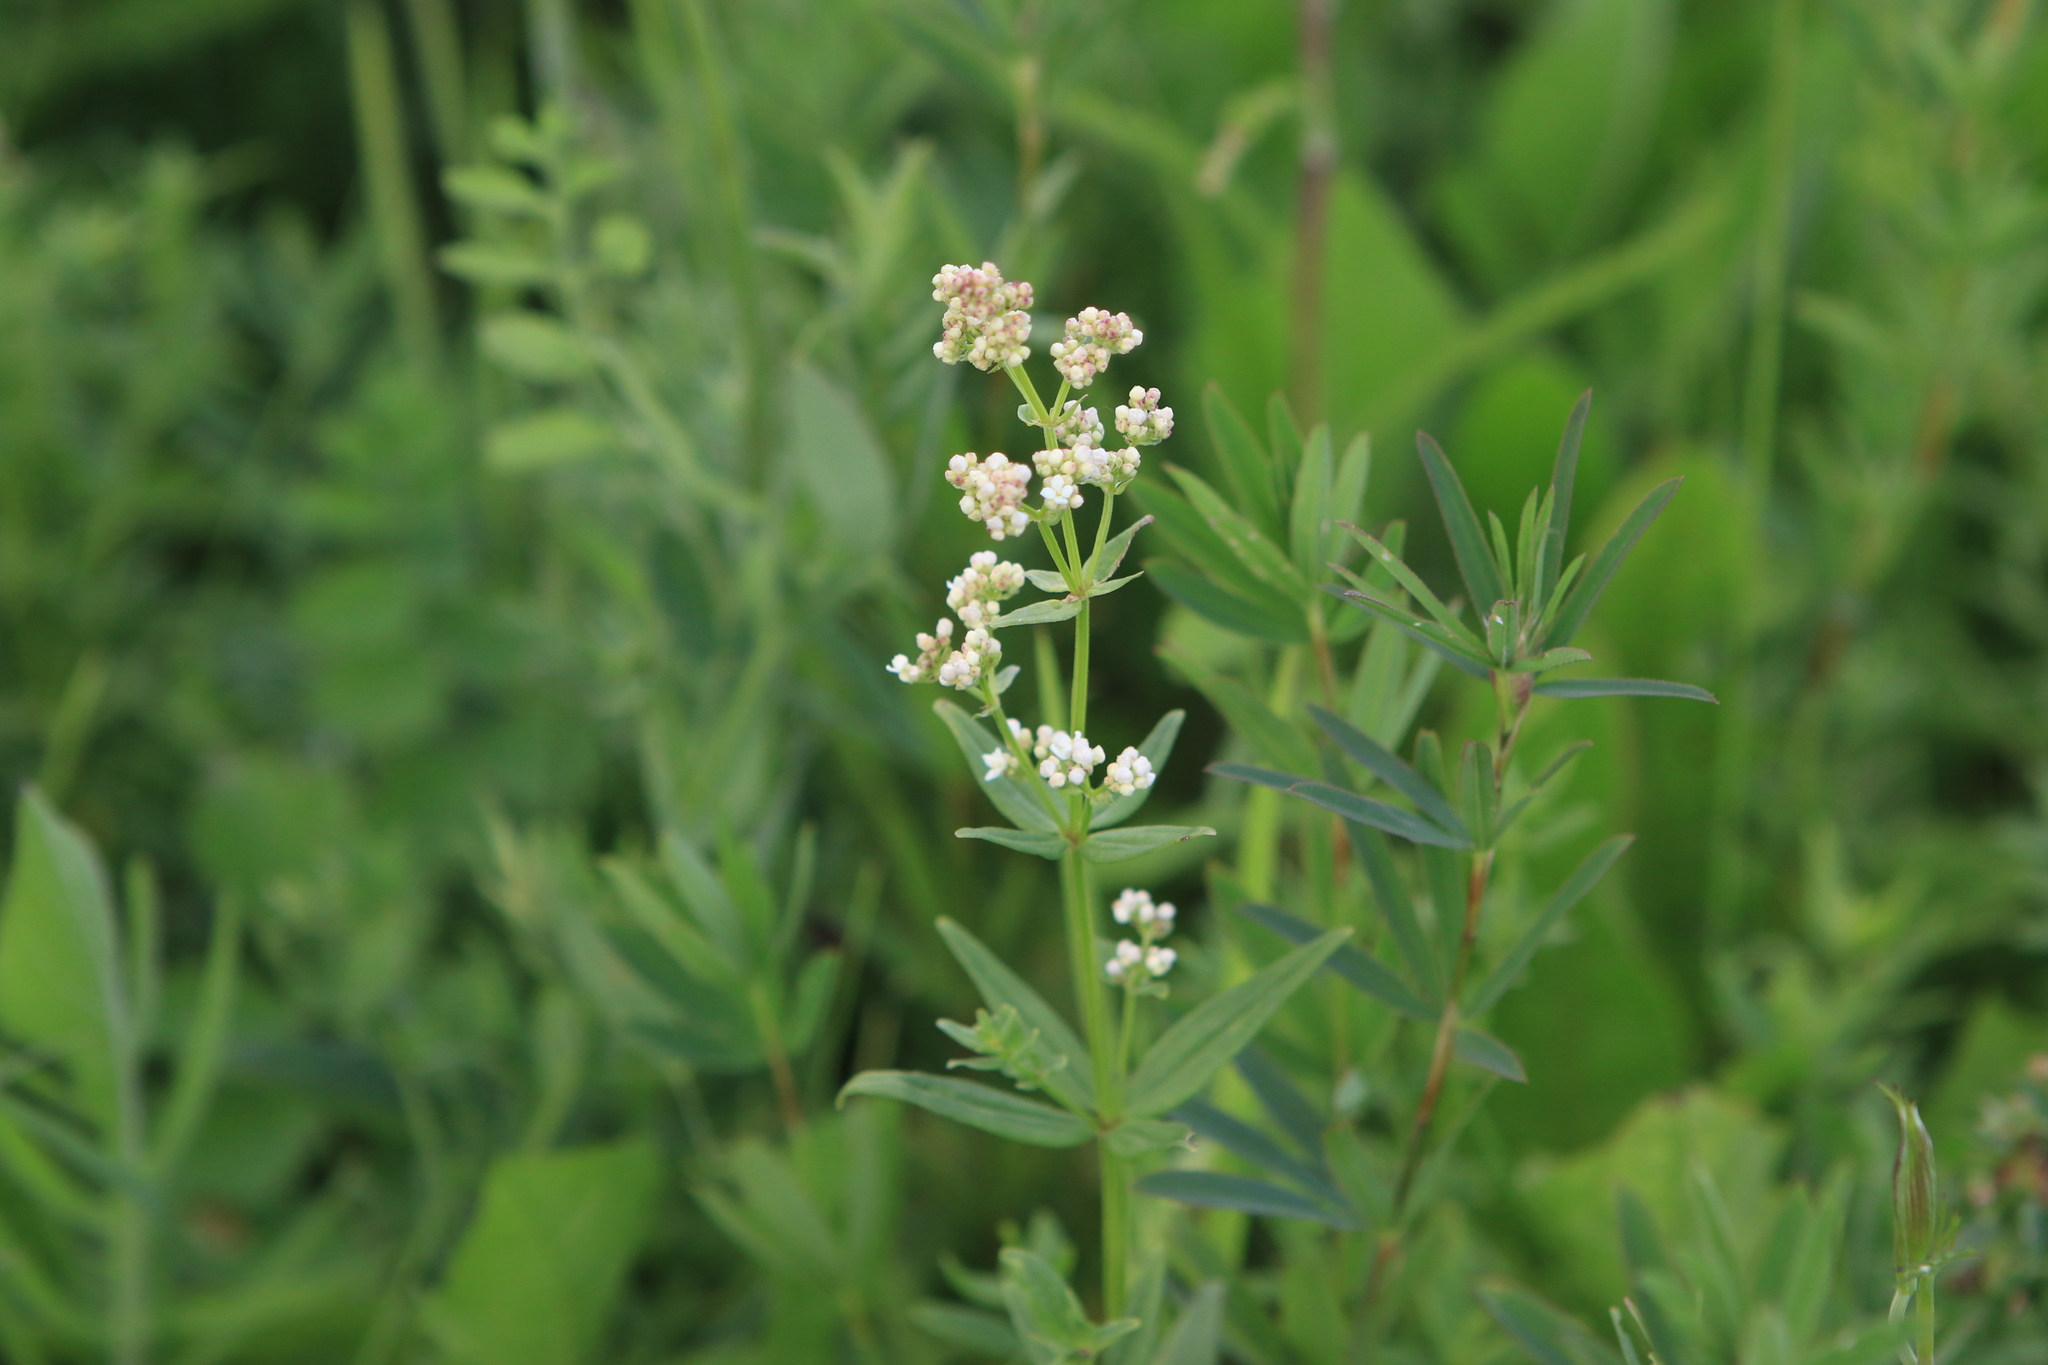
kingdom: Plantae
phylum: Tracheophyta
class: Magnoliopsida
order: Gentianales
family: Rubiaceae
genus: Galium
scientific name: Galium boreale
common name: Northern bedstraw
